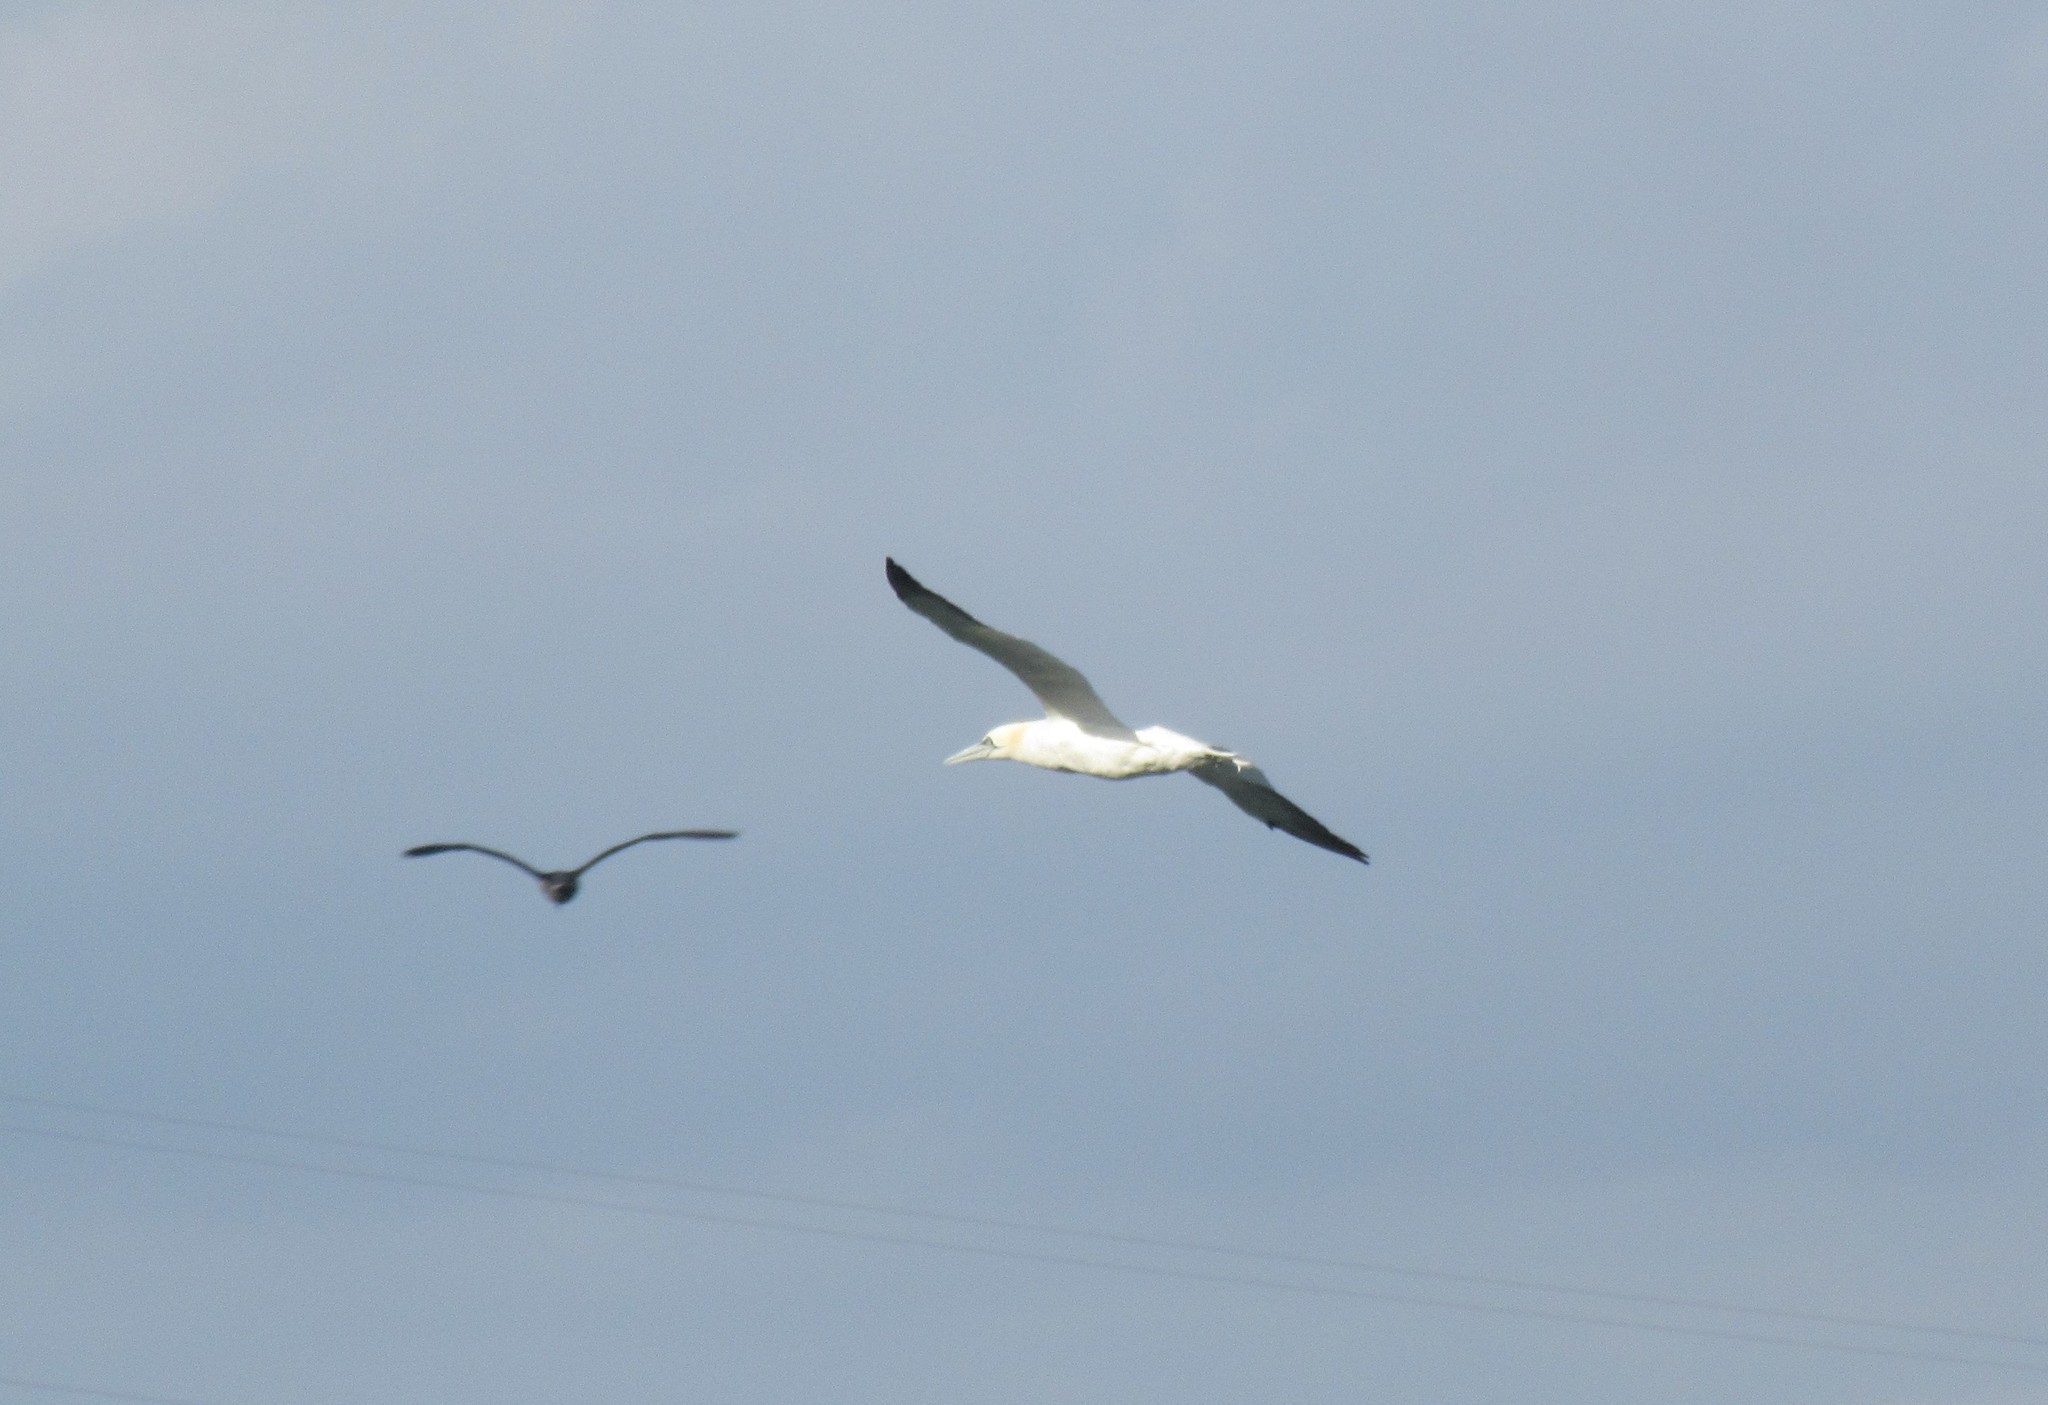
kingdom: Animalia
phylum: Chordata
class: Aves
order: Suliformes
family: Sulidae
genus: Morus
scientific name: Morus bassanus
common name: Northern gannet
